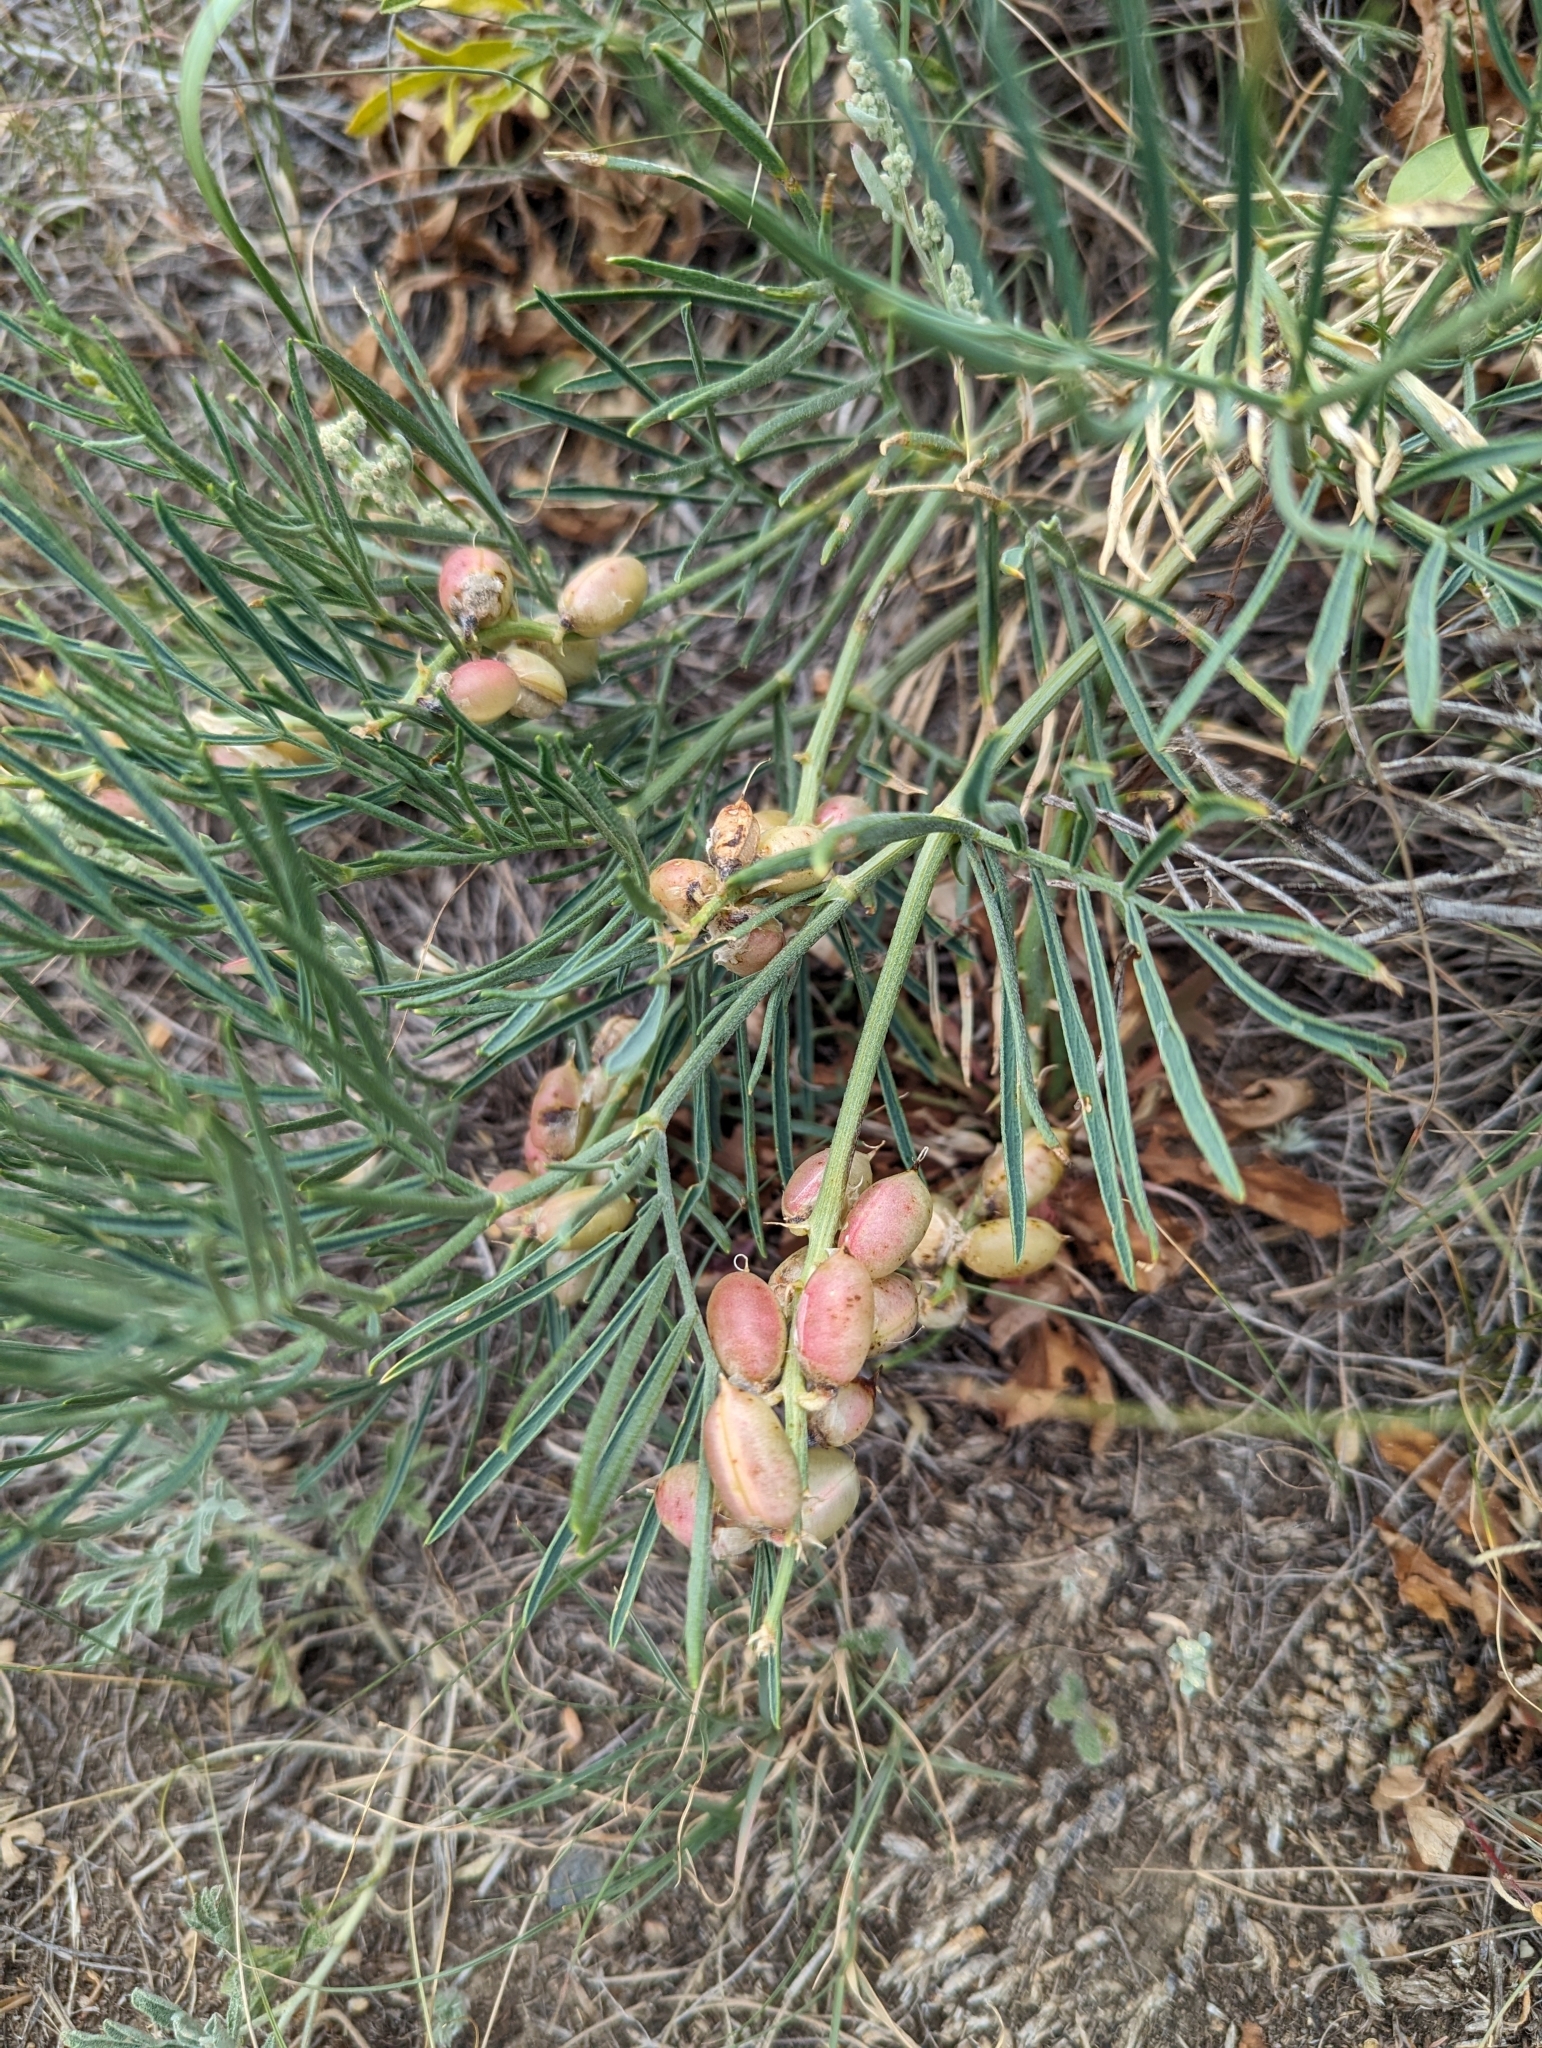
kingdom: Plantae
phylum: Tracheophyta
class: Magnoliopsida
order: Fabales
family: Fabaceae
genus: Astragalus
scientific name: Astragalus pectinatus
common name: Tine-leaf milk-vetch
